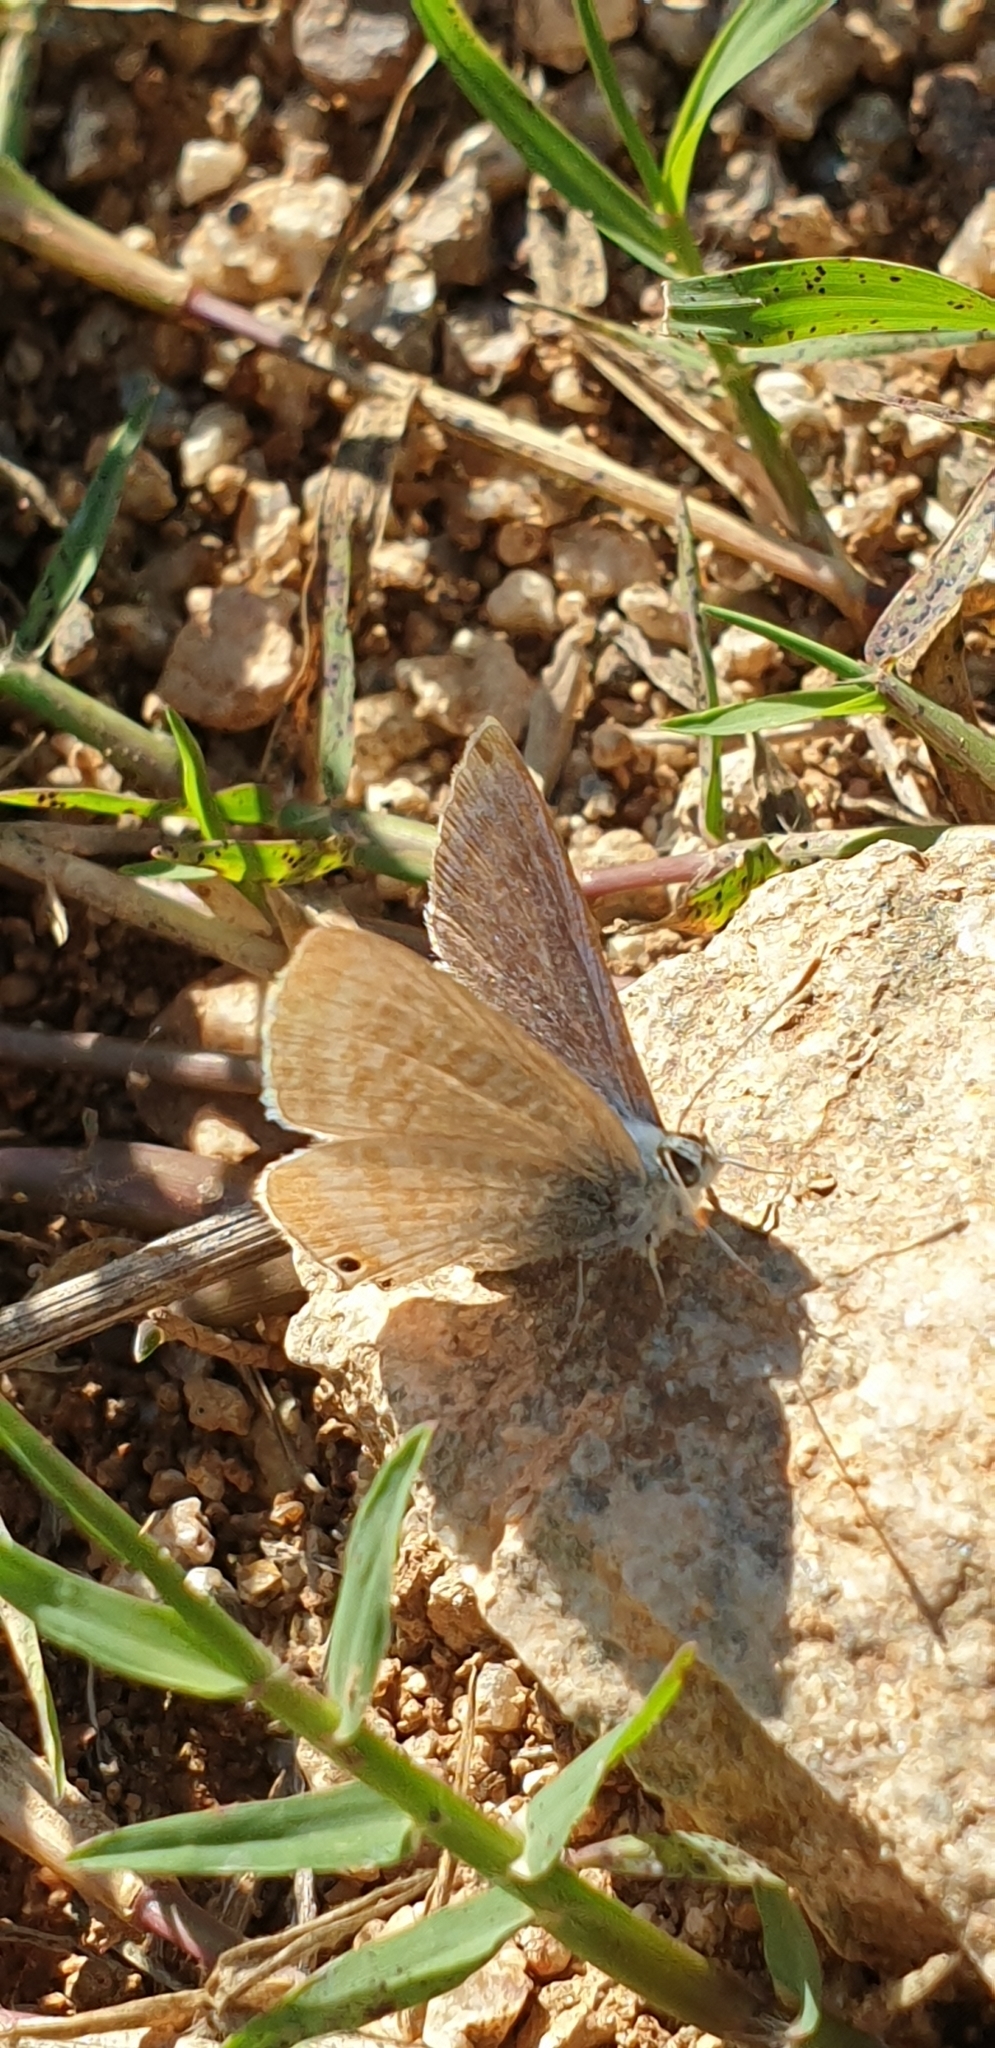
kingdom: Animalia
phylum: Arthropoda
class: Insecta
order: Lepidoptera
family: Lycaenidae
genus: Lampides
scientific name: Lampides boeticus
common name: Long-tailed blue
